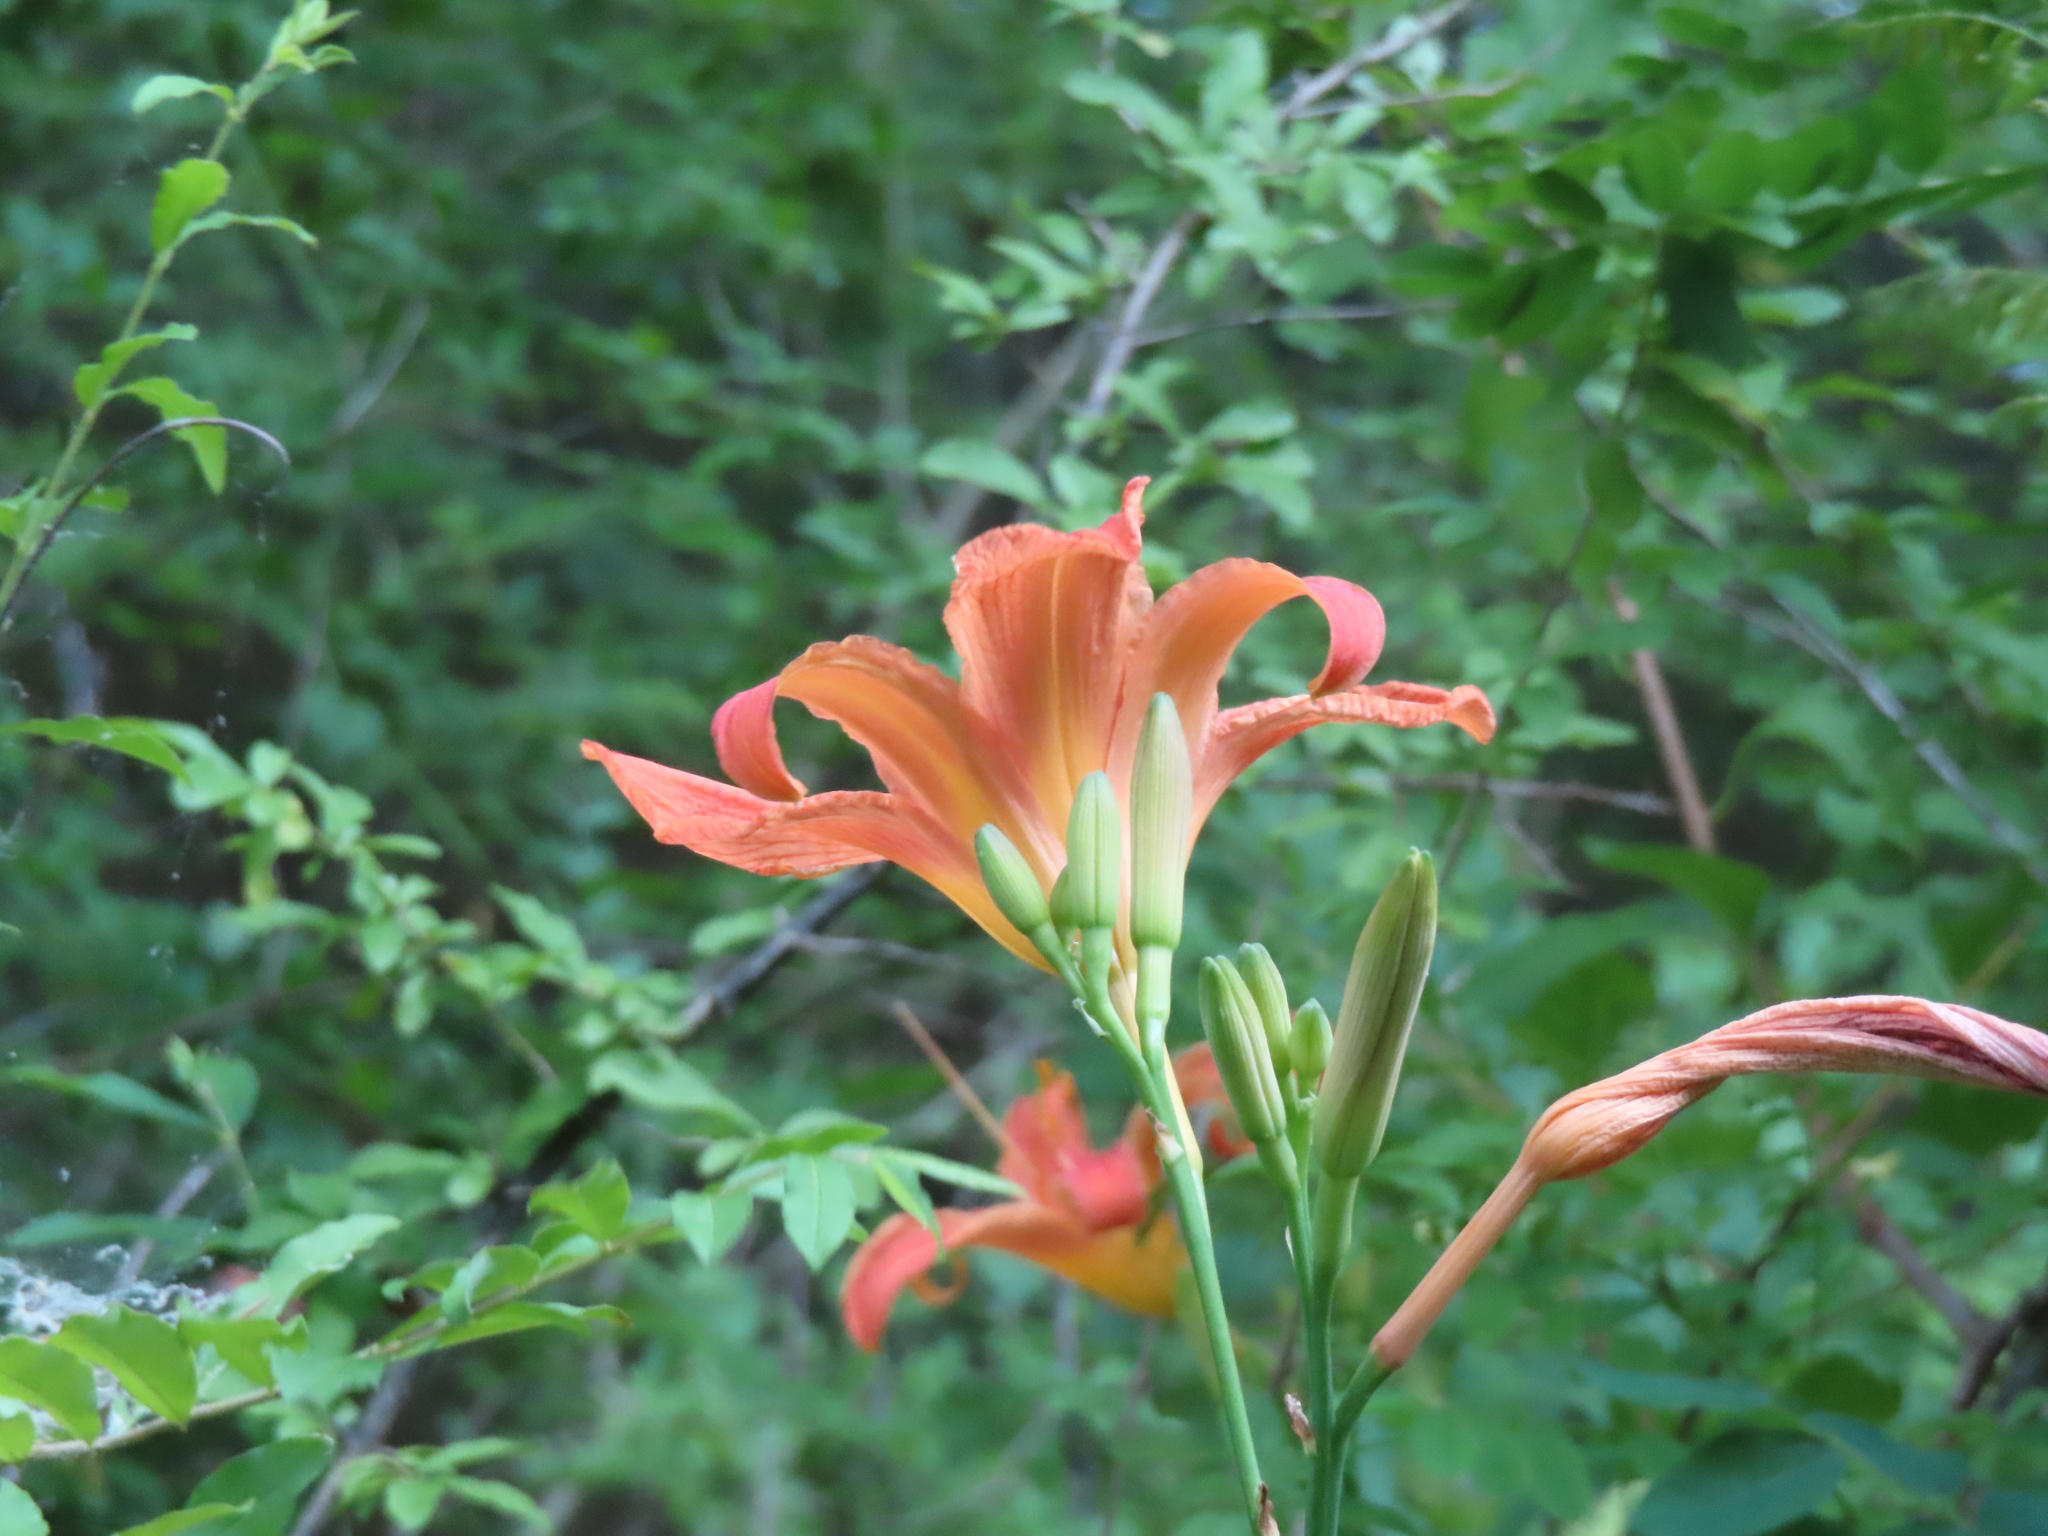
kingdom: Plantae
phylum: Tracheophyta
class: Liliopsida
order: Asparagales
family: Asphodelaceae
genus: Hemerocallis
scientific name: Hemerocallis fulva
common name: Orange day-lily
